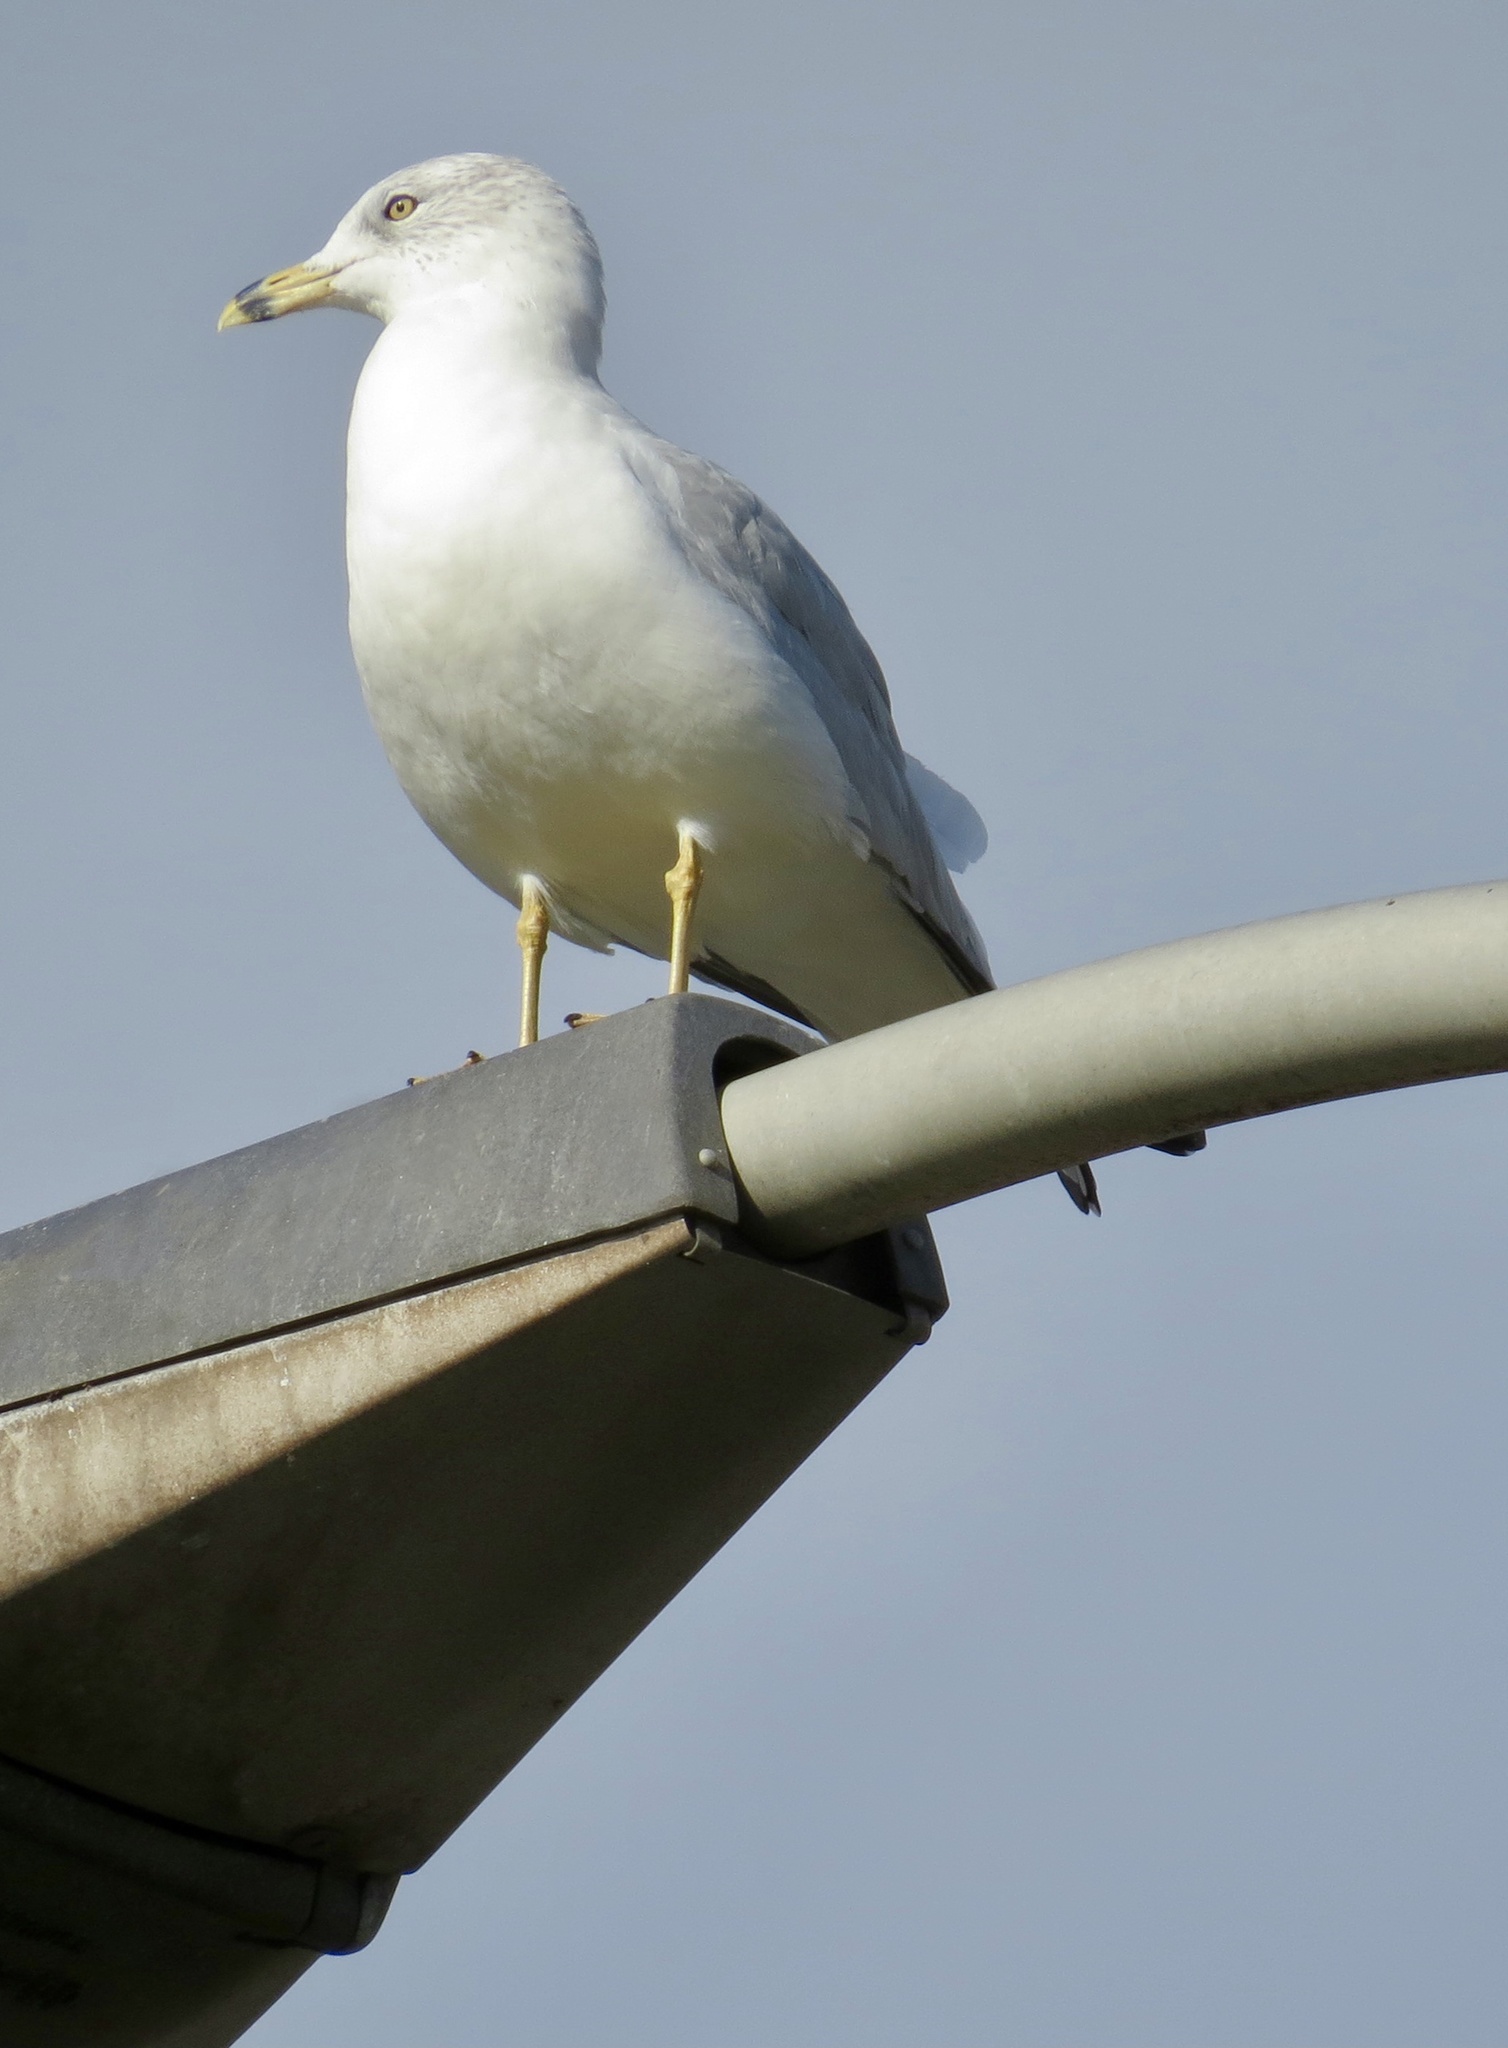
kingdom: Animalia
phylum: Chordata
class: Aves
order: Charadriiformes
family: Laridae
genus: Larus
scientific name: Larus delawarensis
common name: Ring-billed gull
